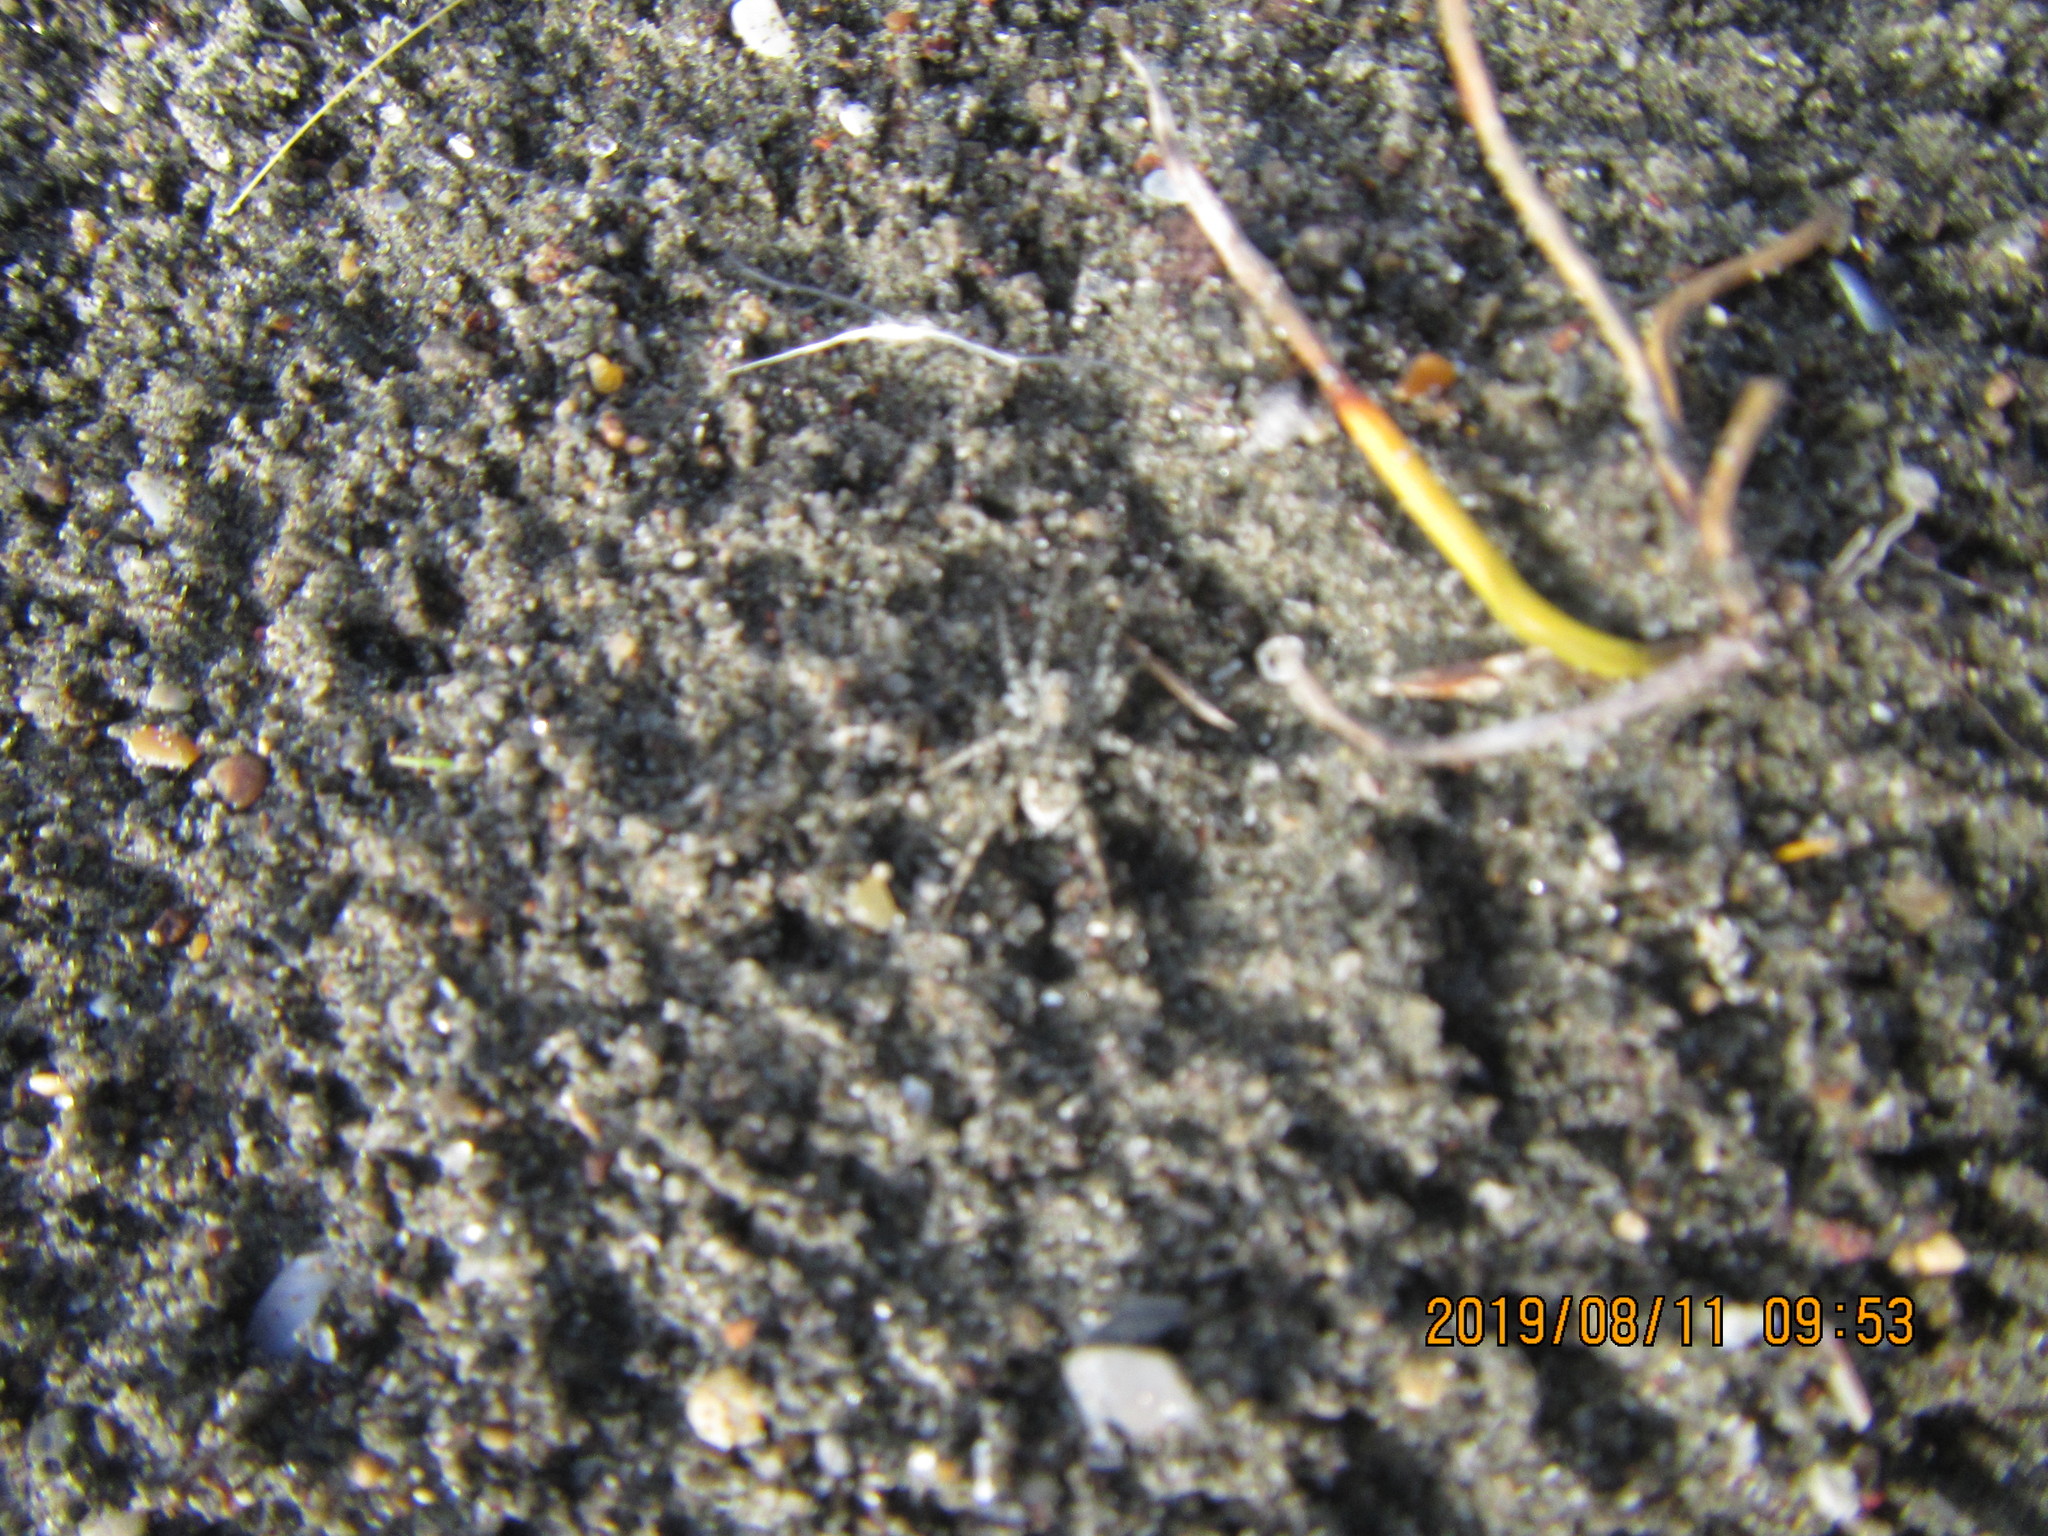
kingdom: Animalia
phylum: Arthropoda
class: Arachnida
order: Araneae
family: Lycosidae
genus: Anoteropsis
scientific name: Anoteropsis litoralis
